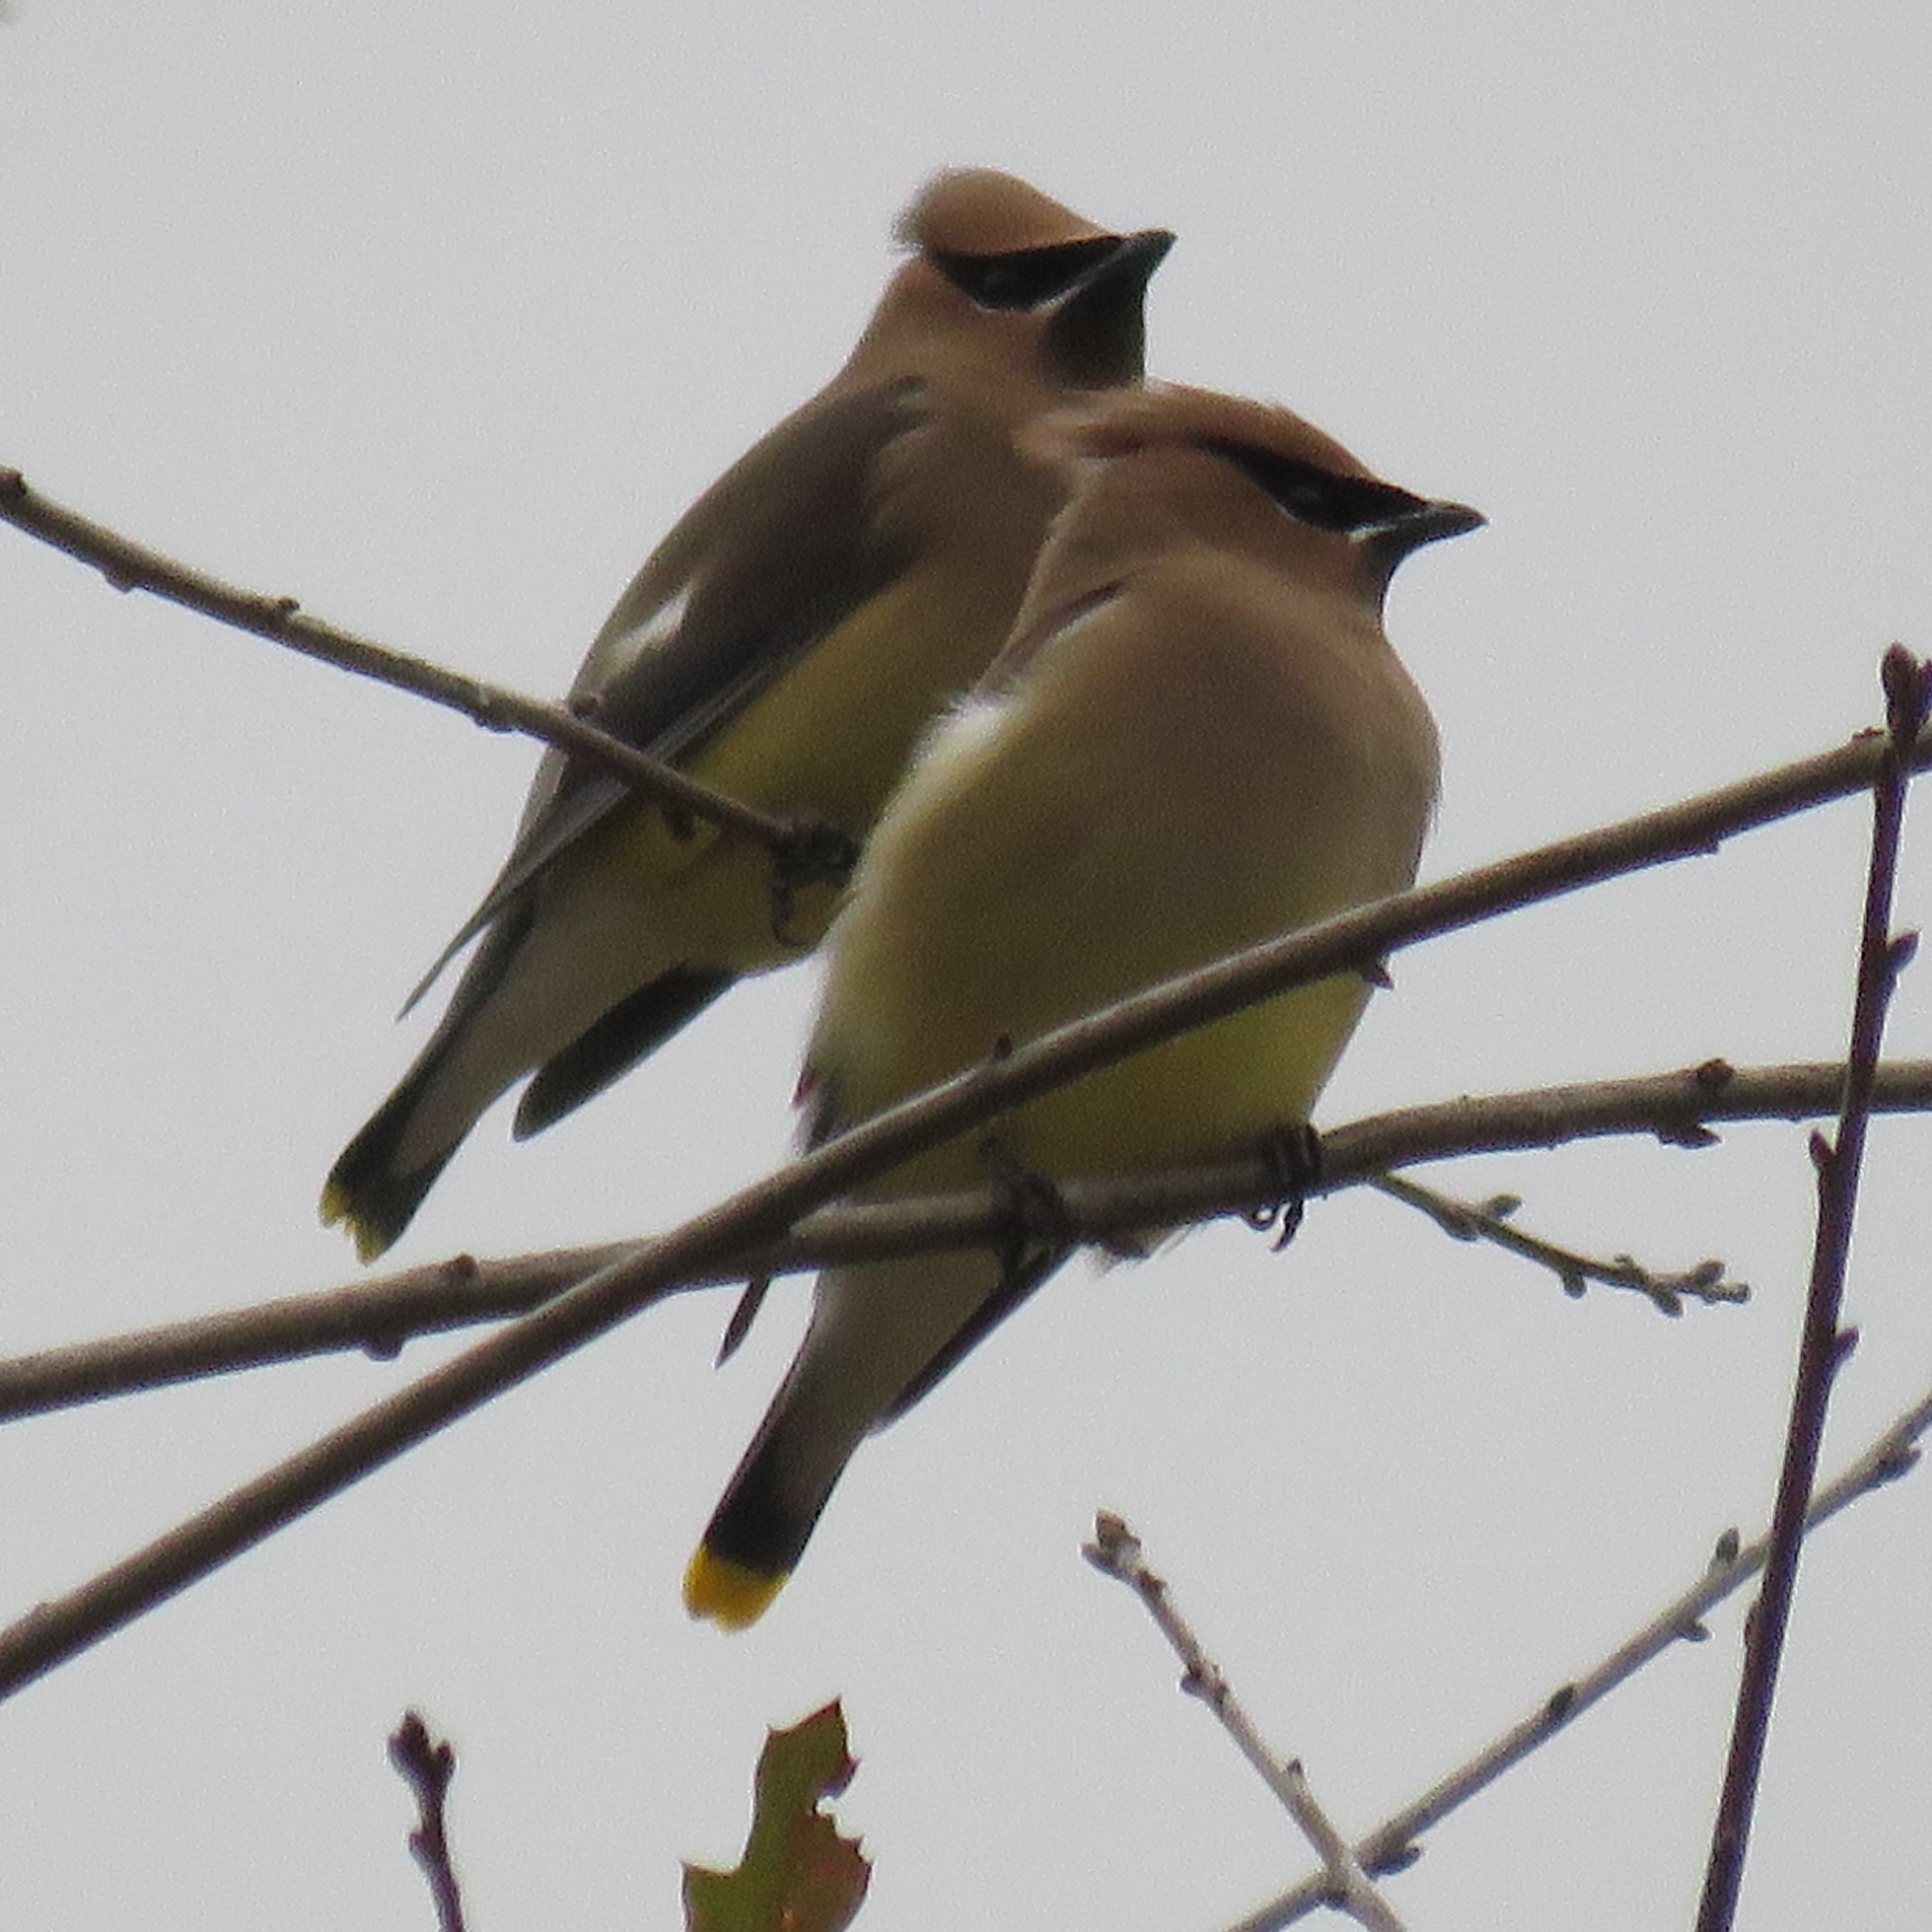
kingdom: Animalia
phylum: Chordata
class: Aves
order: Passeriformes
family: Bombycillidae
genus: Bombycilla
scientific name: Bombycilla cedrorum
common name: Cedar waxwing
